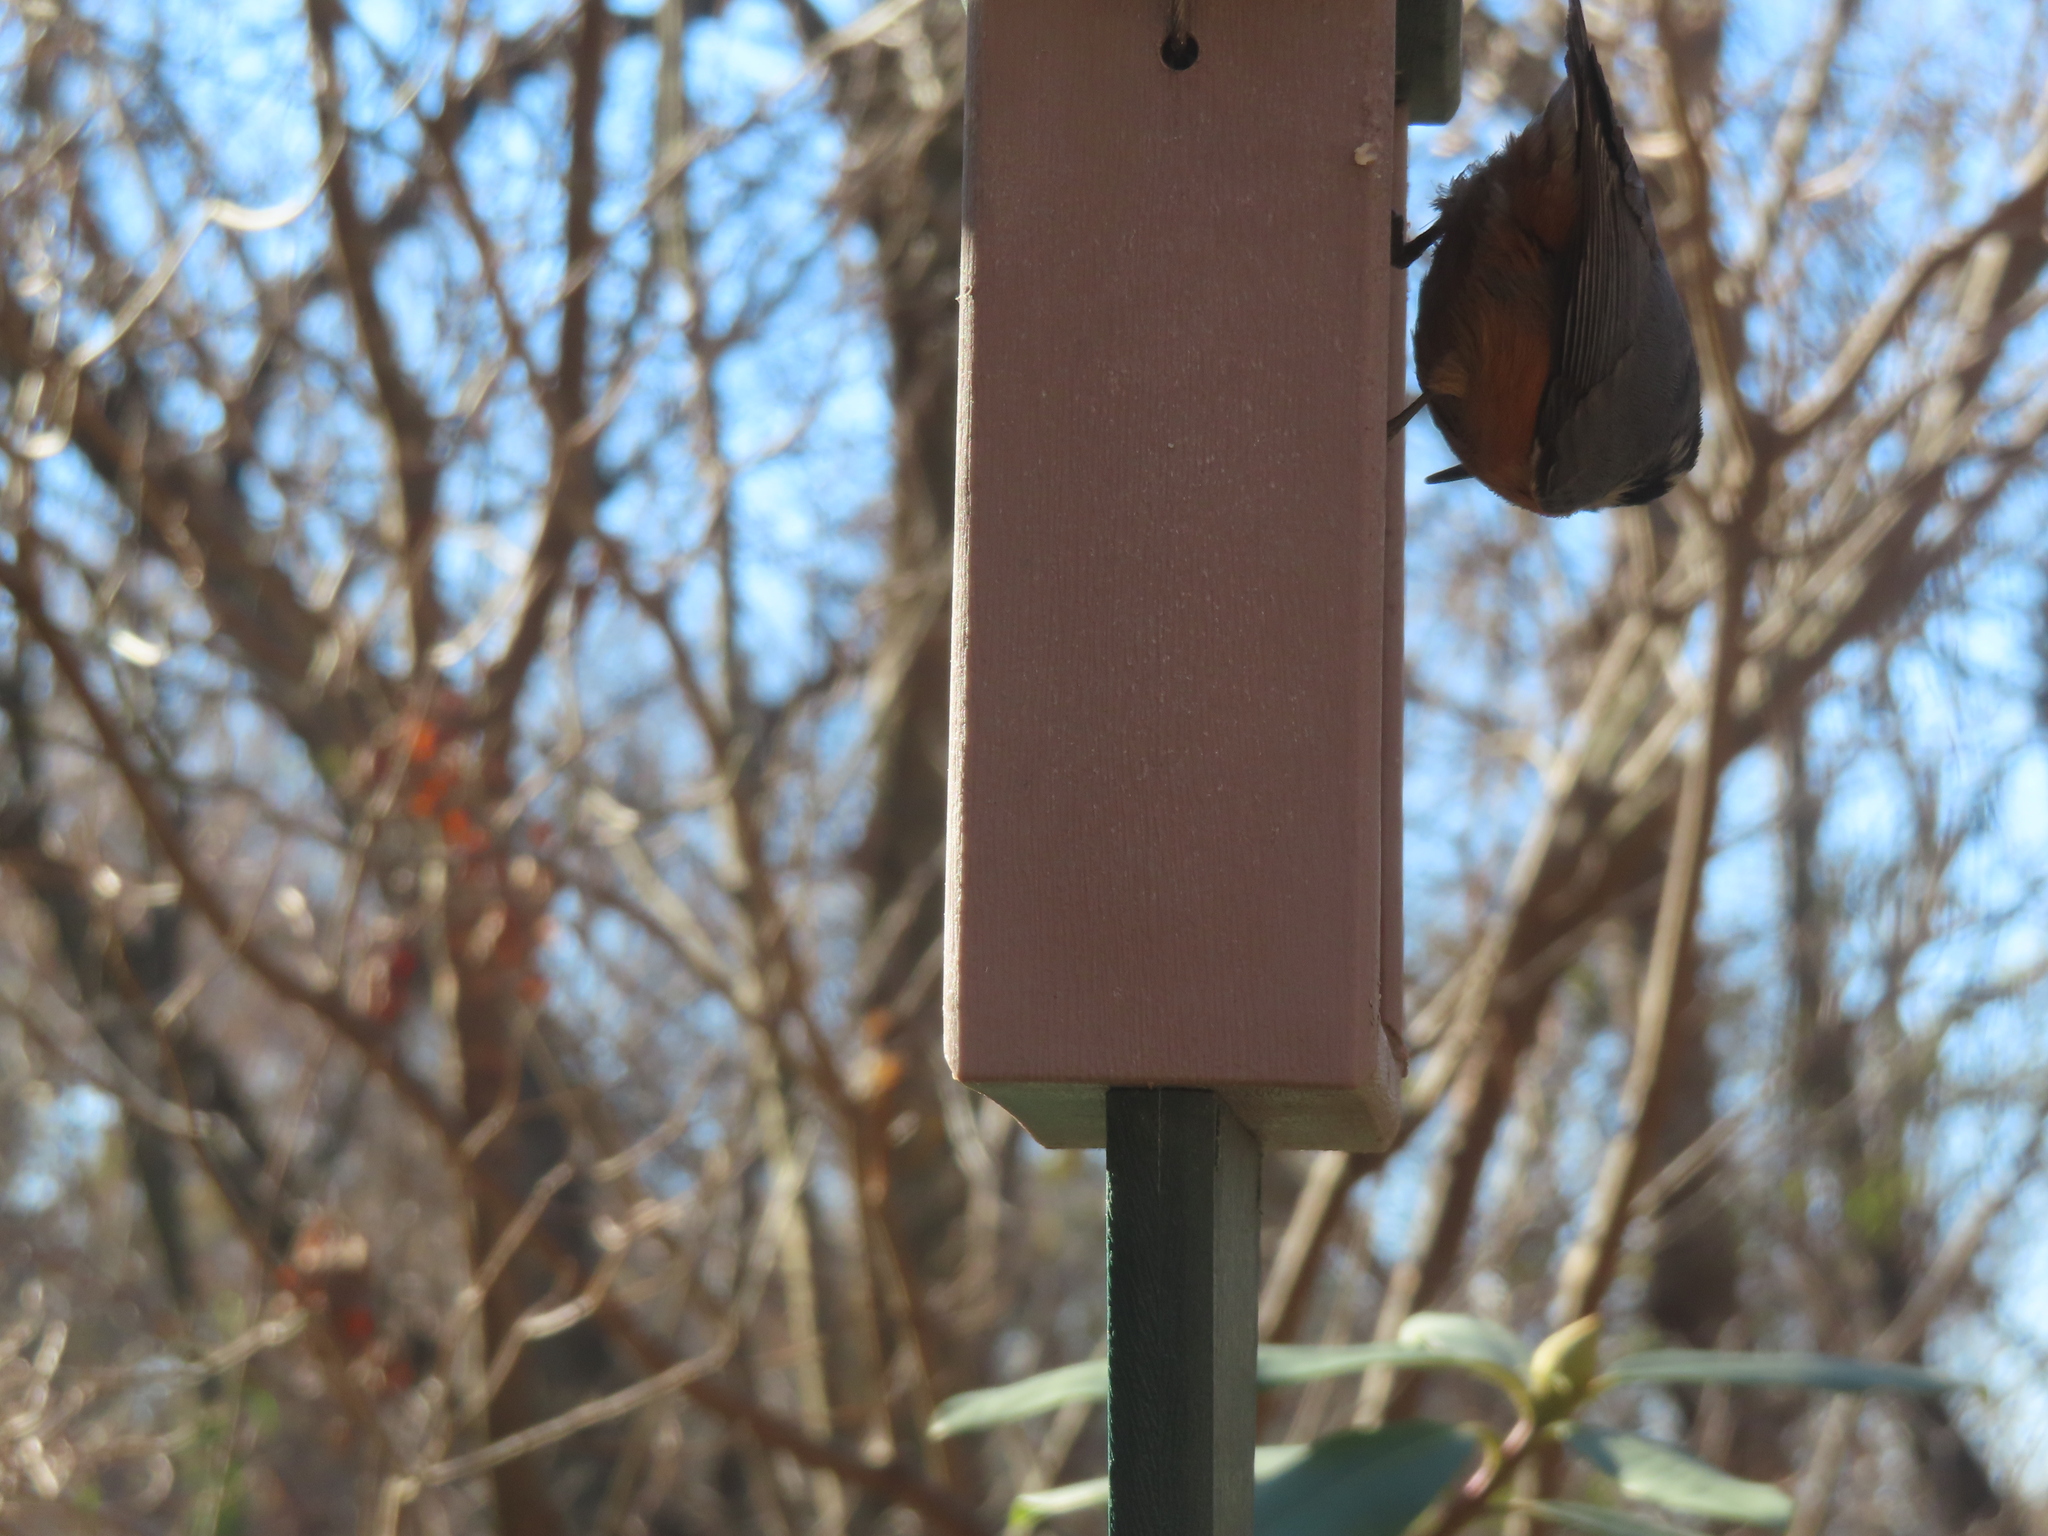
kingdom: Animalia
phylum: Chordata
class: Aves
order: Passeriformes
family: Sittidae
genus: Sitta
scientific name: Sitta canadensis
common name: Red-breasted nuthatch
